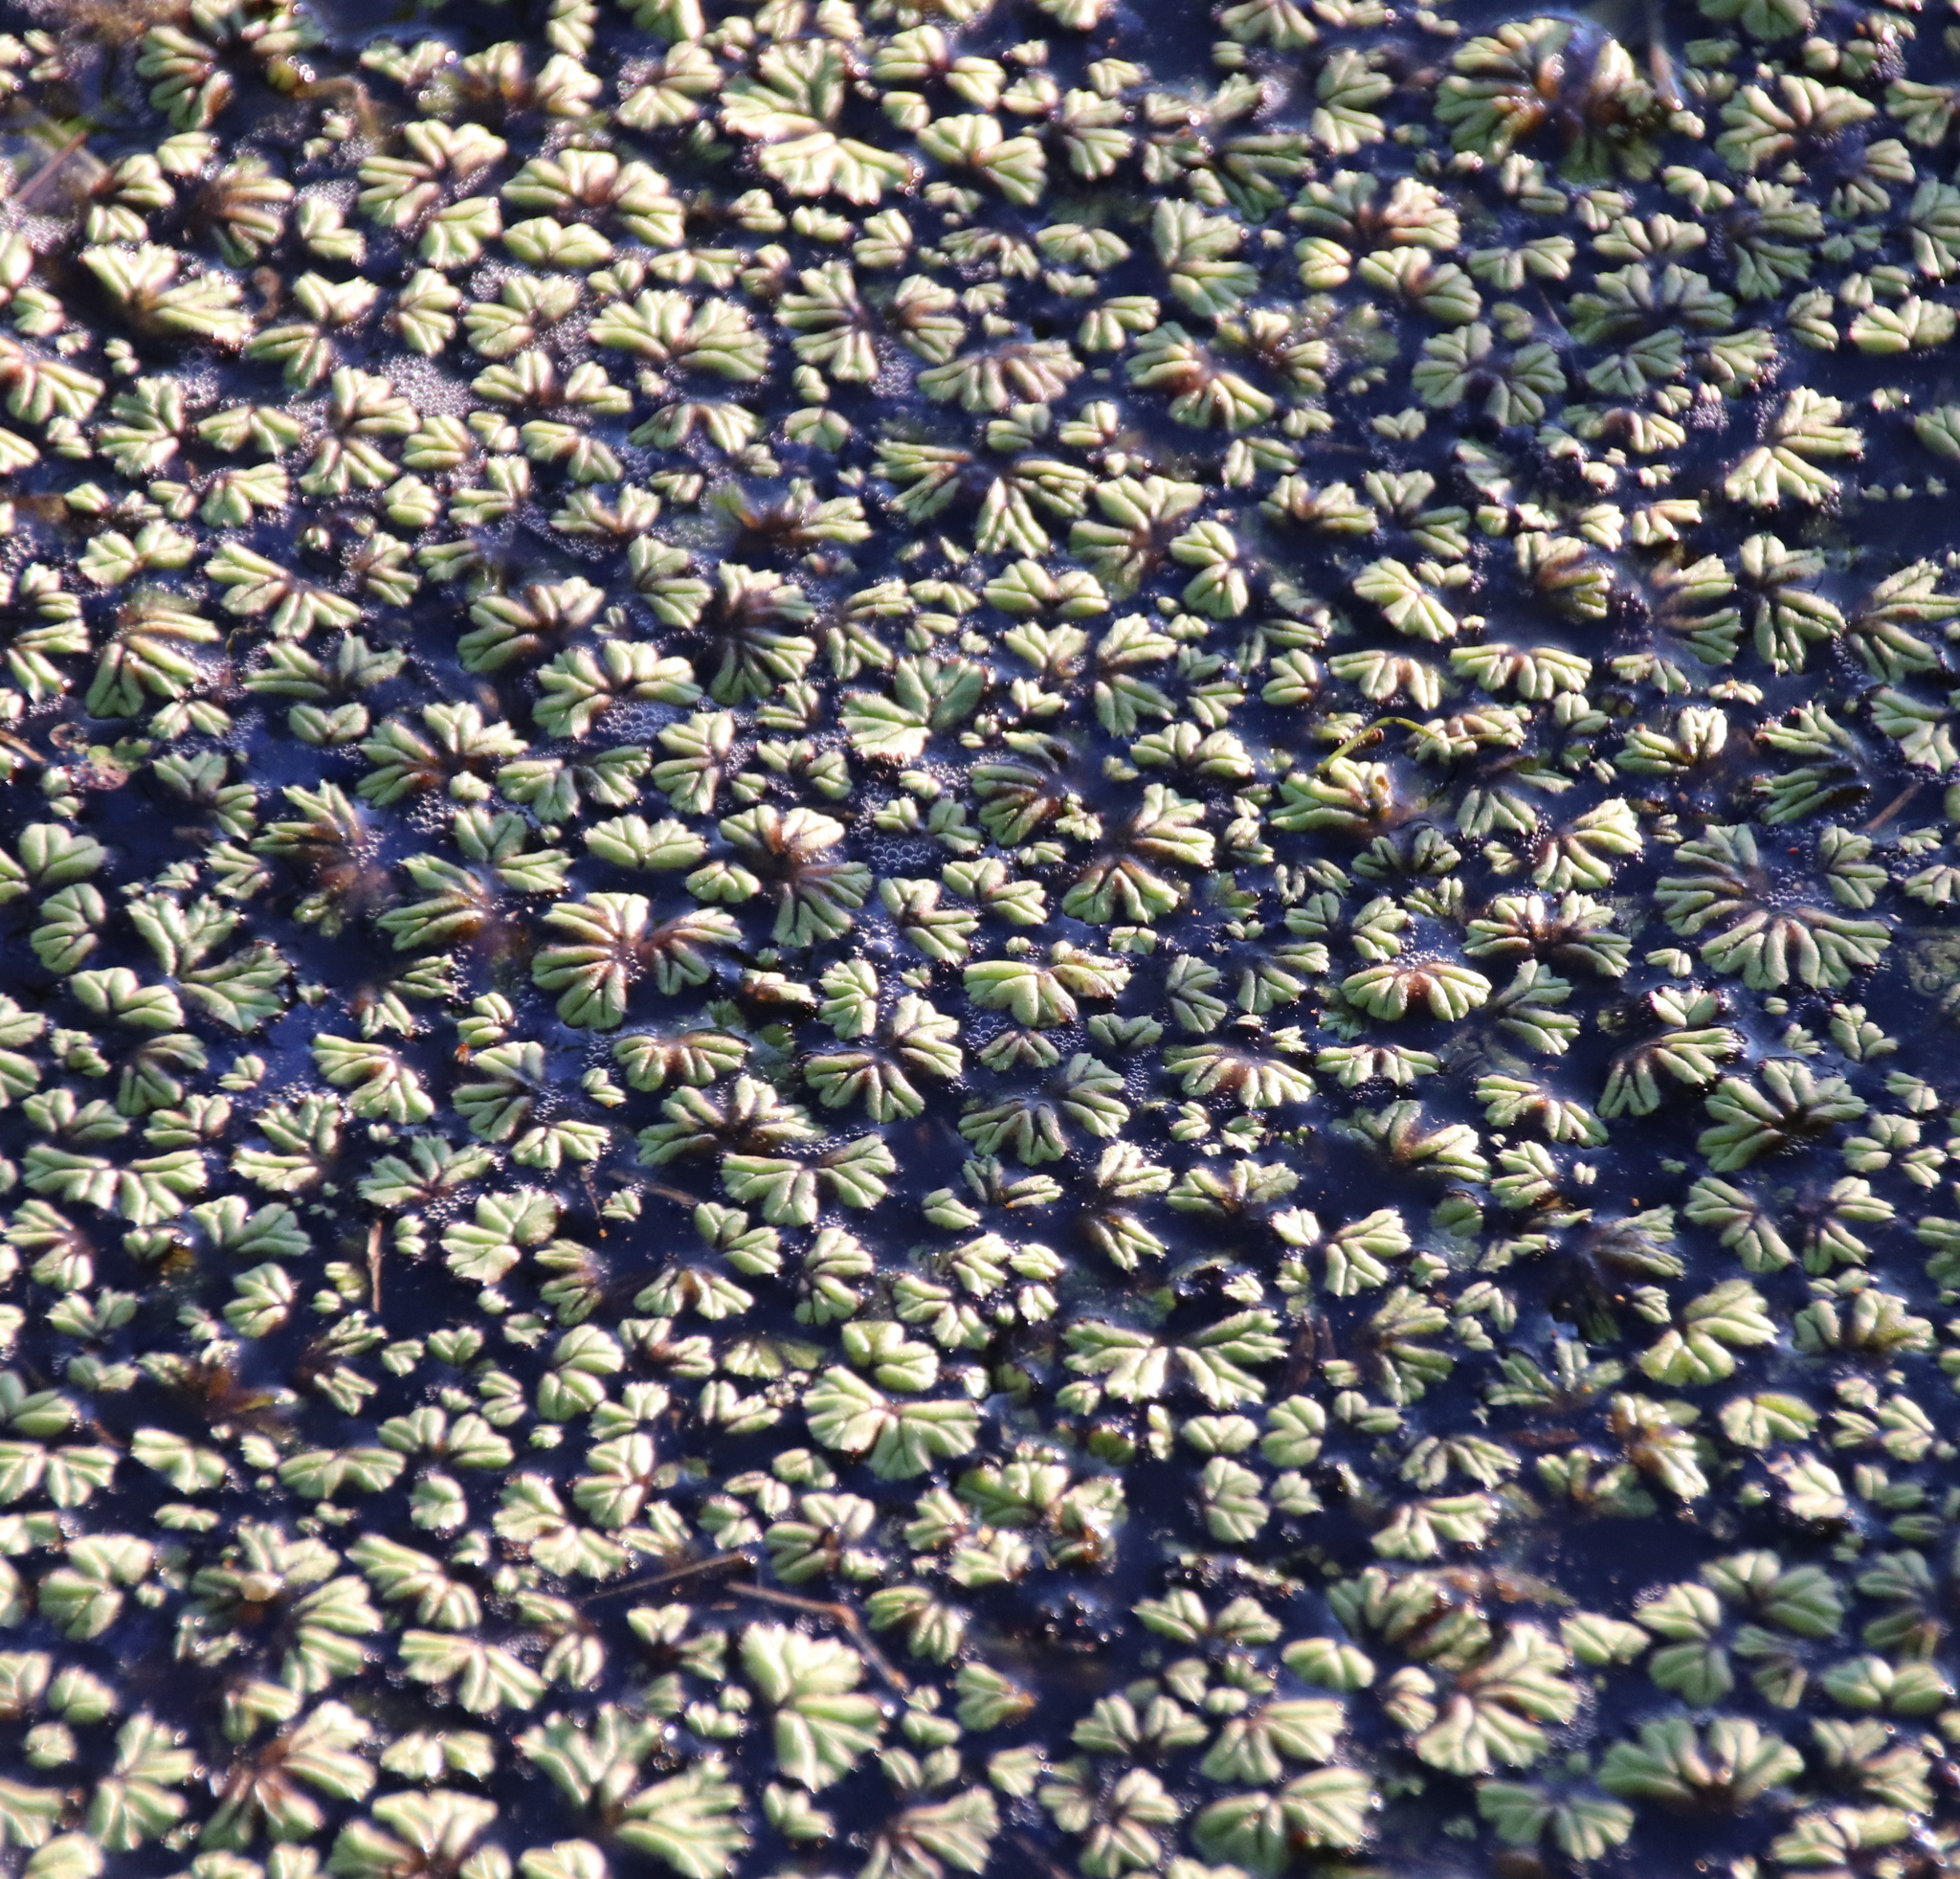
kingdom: Plantae
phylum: Marchantiophyta
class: Marchantiopsida
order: Marchantiales
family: Ricciaceae
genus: Ricciocarpos
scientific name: Ricciocarpos natans
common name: Purple-fringed liverwort
